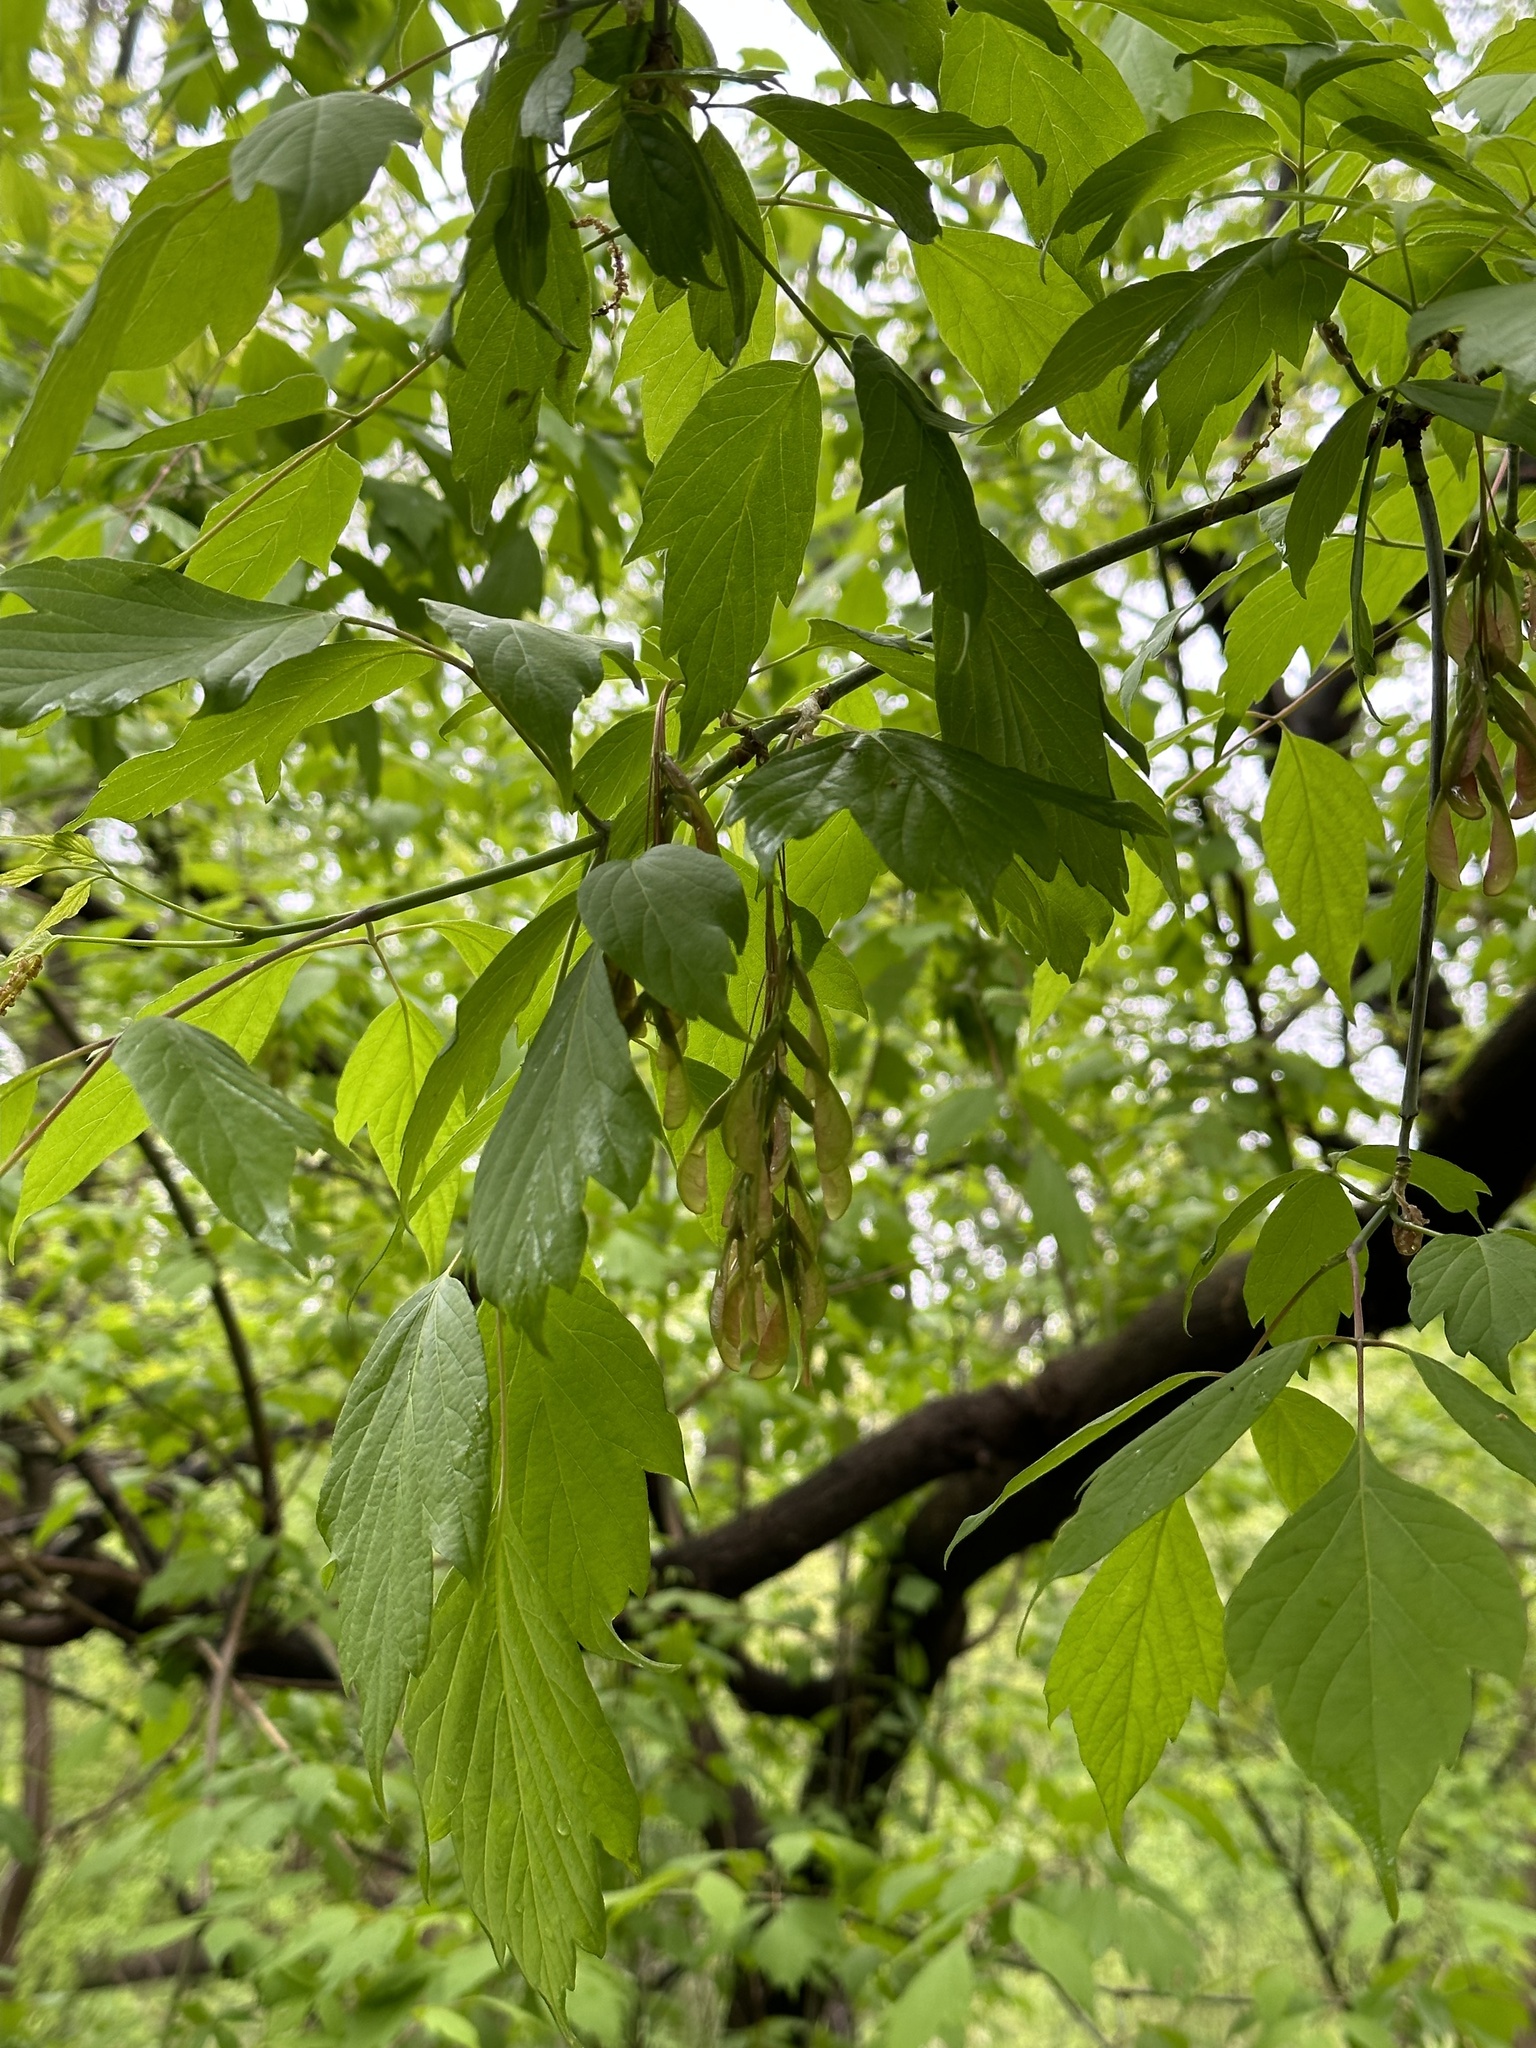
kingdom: Plantae
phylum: Tracheophyta
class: Magnoliopsida
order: Sapindales
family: Sapindaceae
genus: Acer
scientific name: Acer negundo
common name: Ashleaf maple
